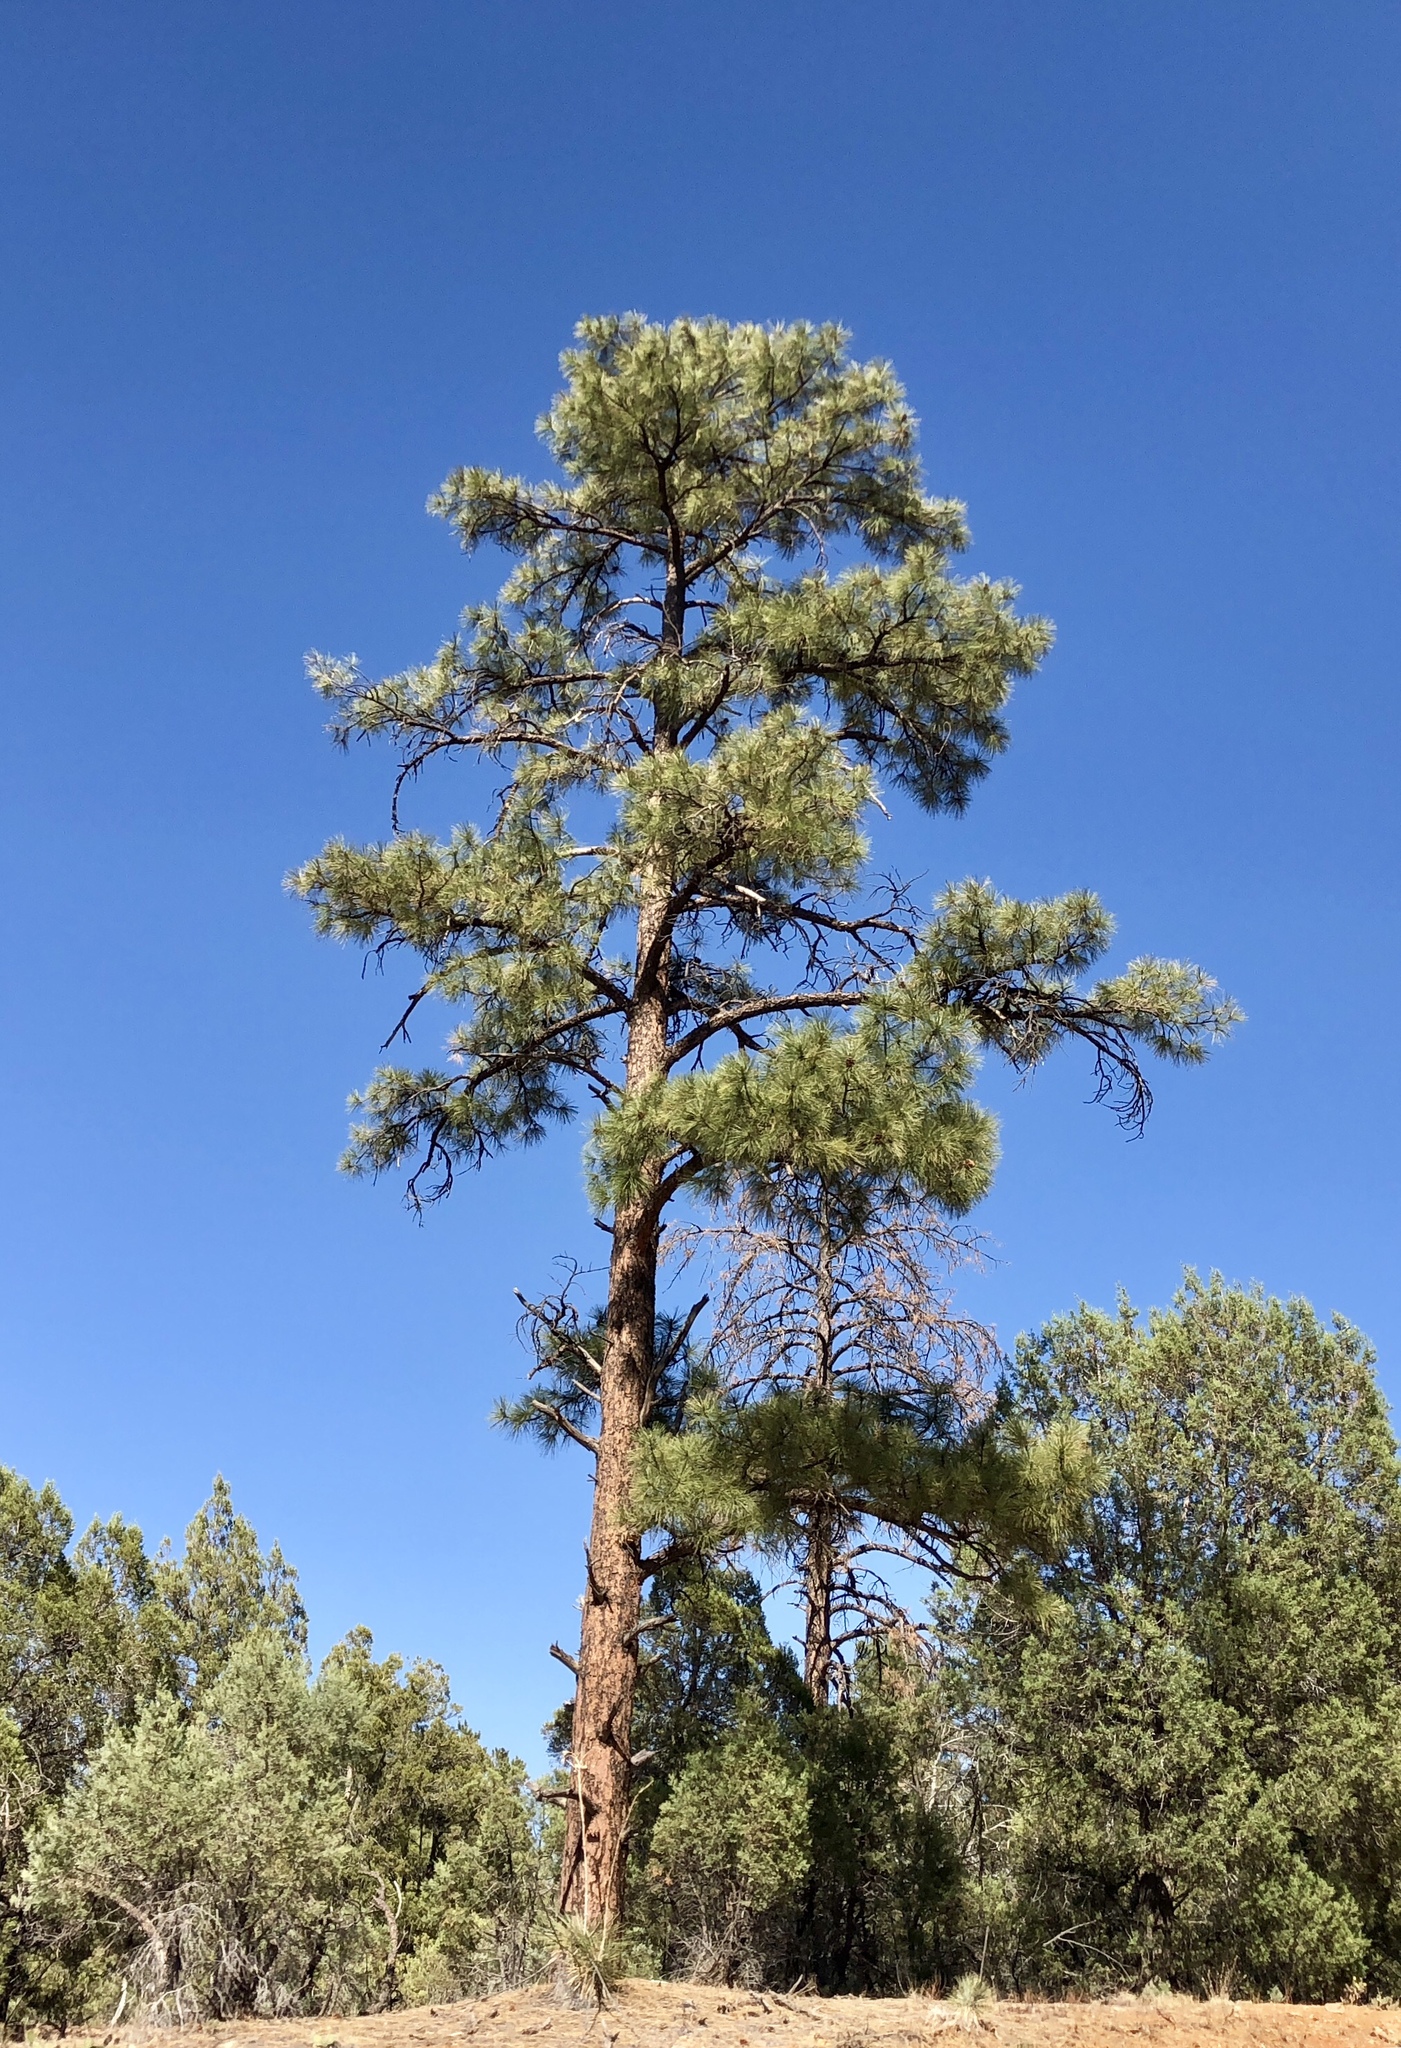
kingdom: Plantae
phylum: Tracheophyta
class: Pinopsida
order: Pinales
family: Pinaceae
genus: Pinus
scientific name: Pinus ponderosa
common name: Western yellow-pine
